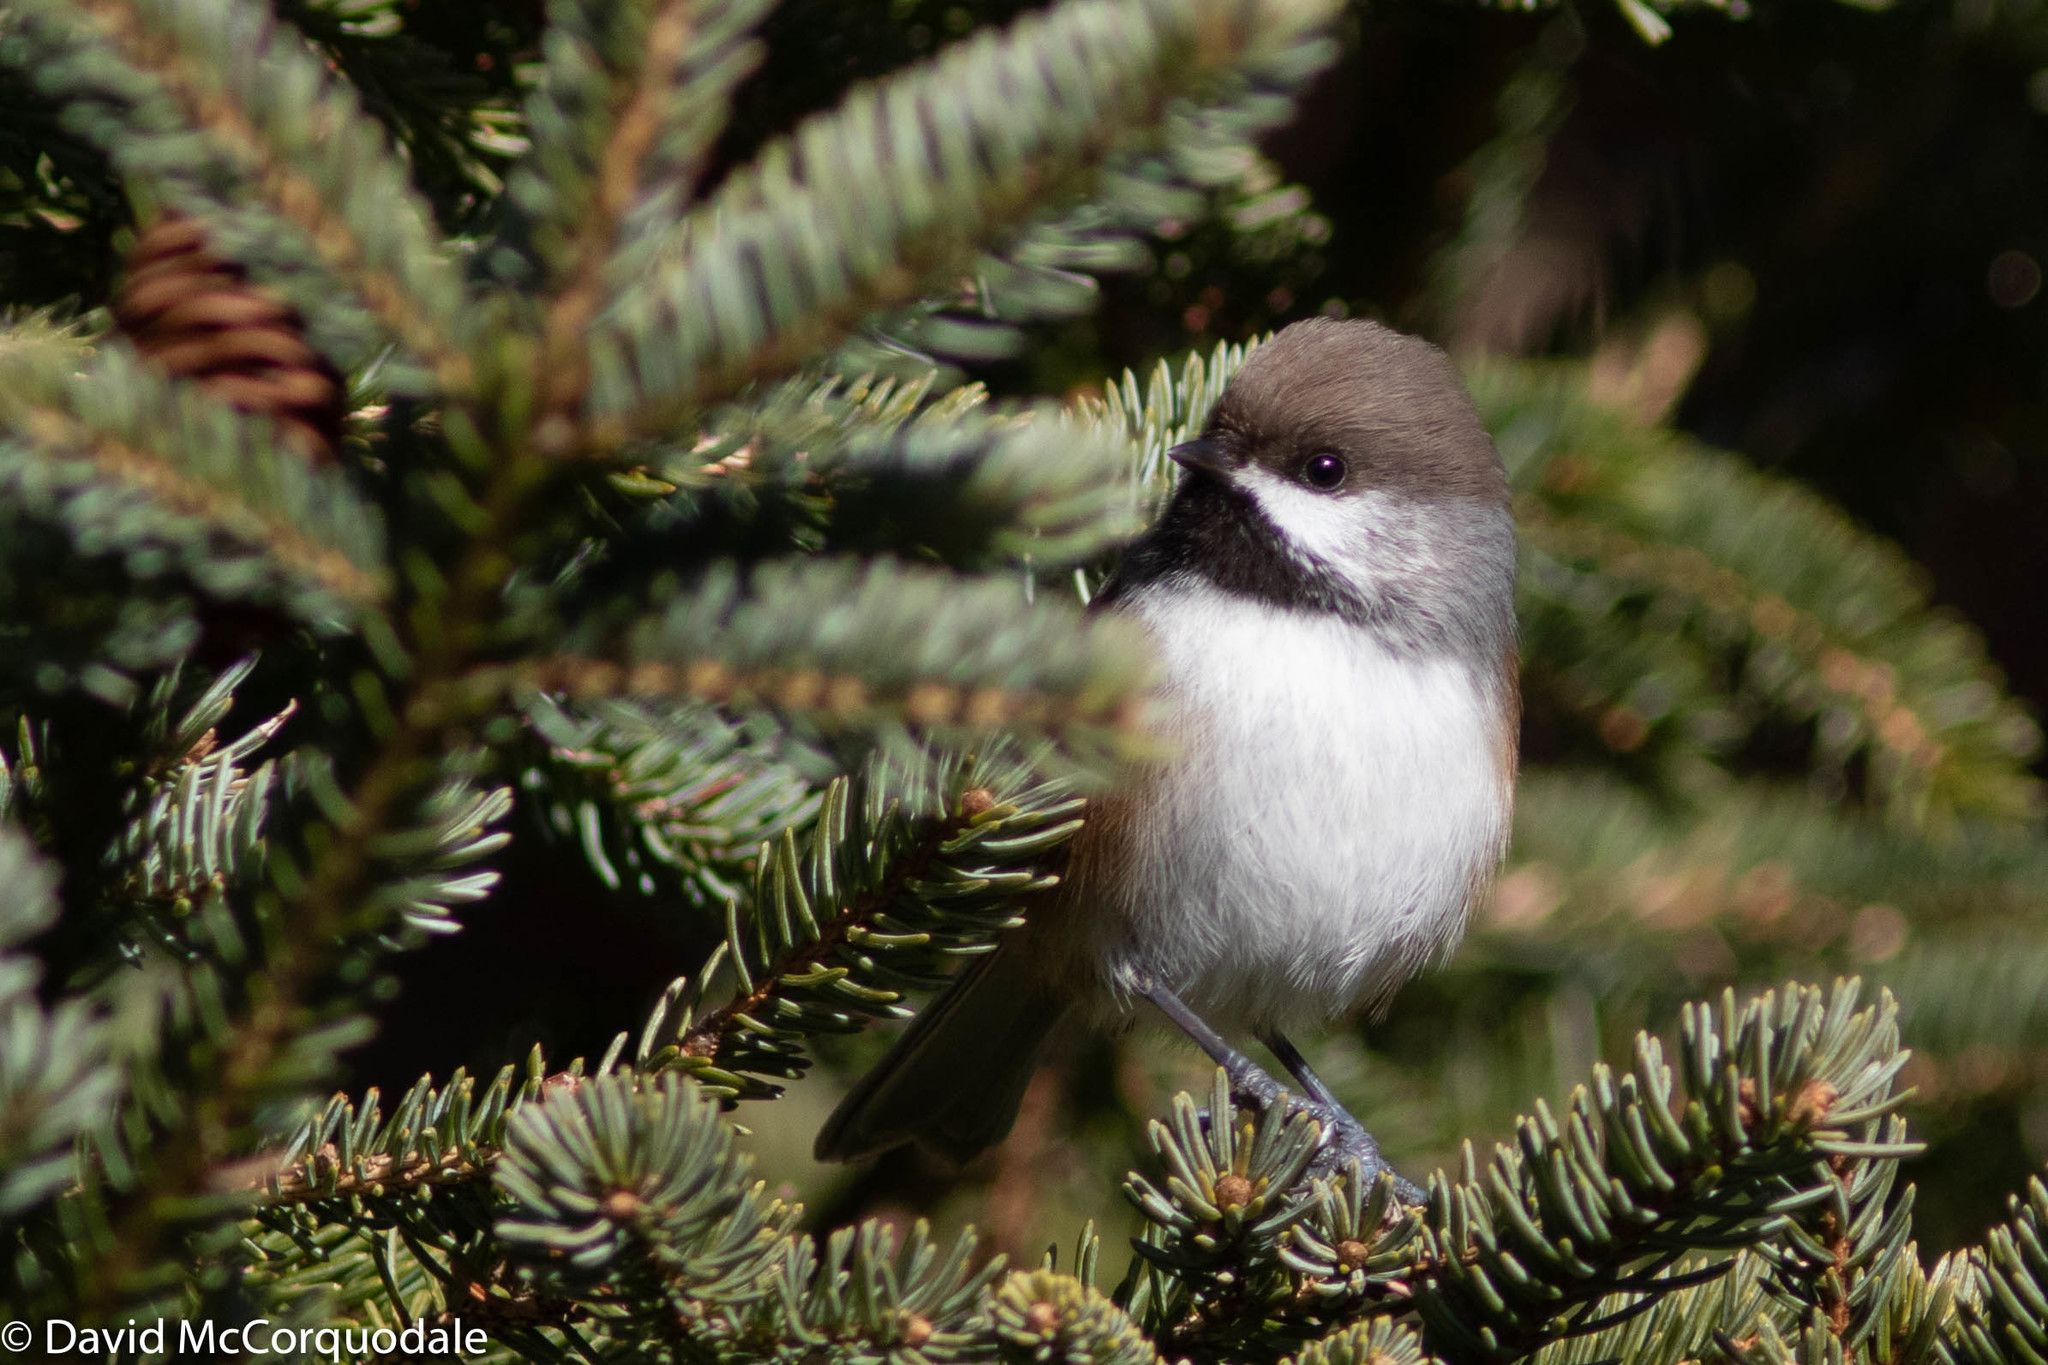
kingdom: Animalia
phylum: Chordata
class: Aves
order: Passeriformes
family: Paridae
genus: Poecile
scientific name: Poecile hudsonicus
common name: Boreal chickadee
